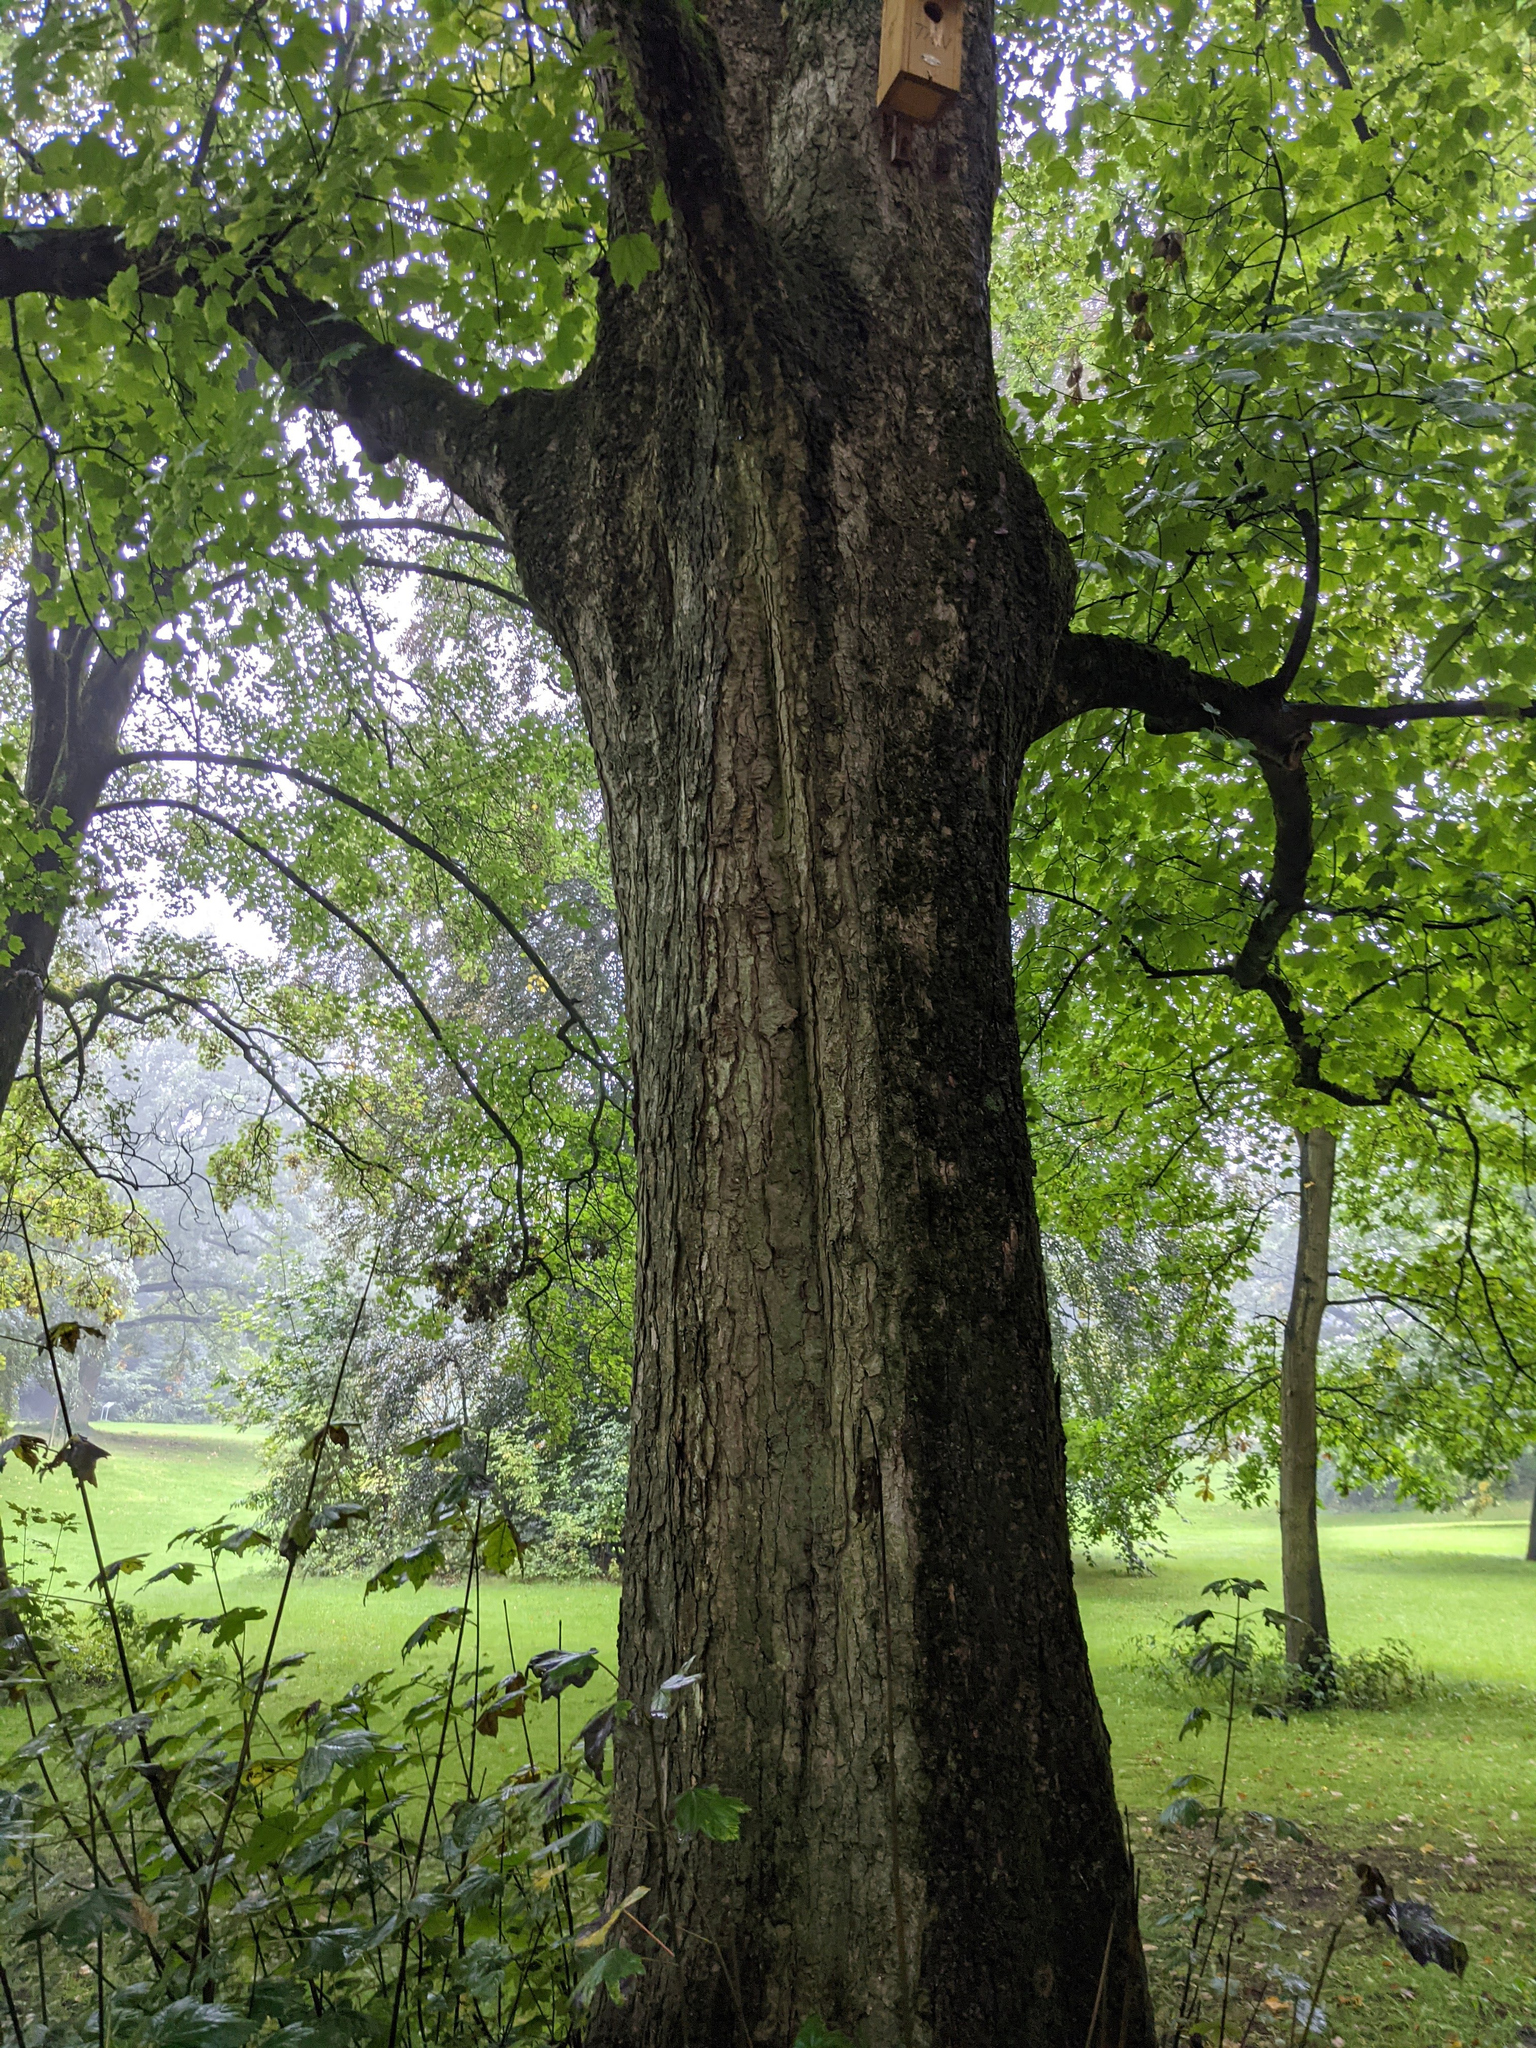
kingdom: Plantae
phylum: Tracheophyta
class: Magnoliopsida
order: Sapindales
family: Sapindaceae
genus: Acer
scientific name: Acer pseudoplatanus
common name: Sycamore
